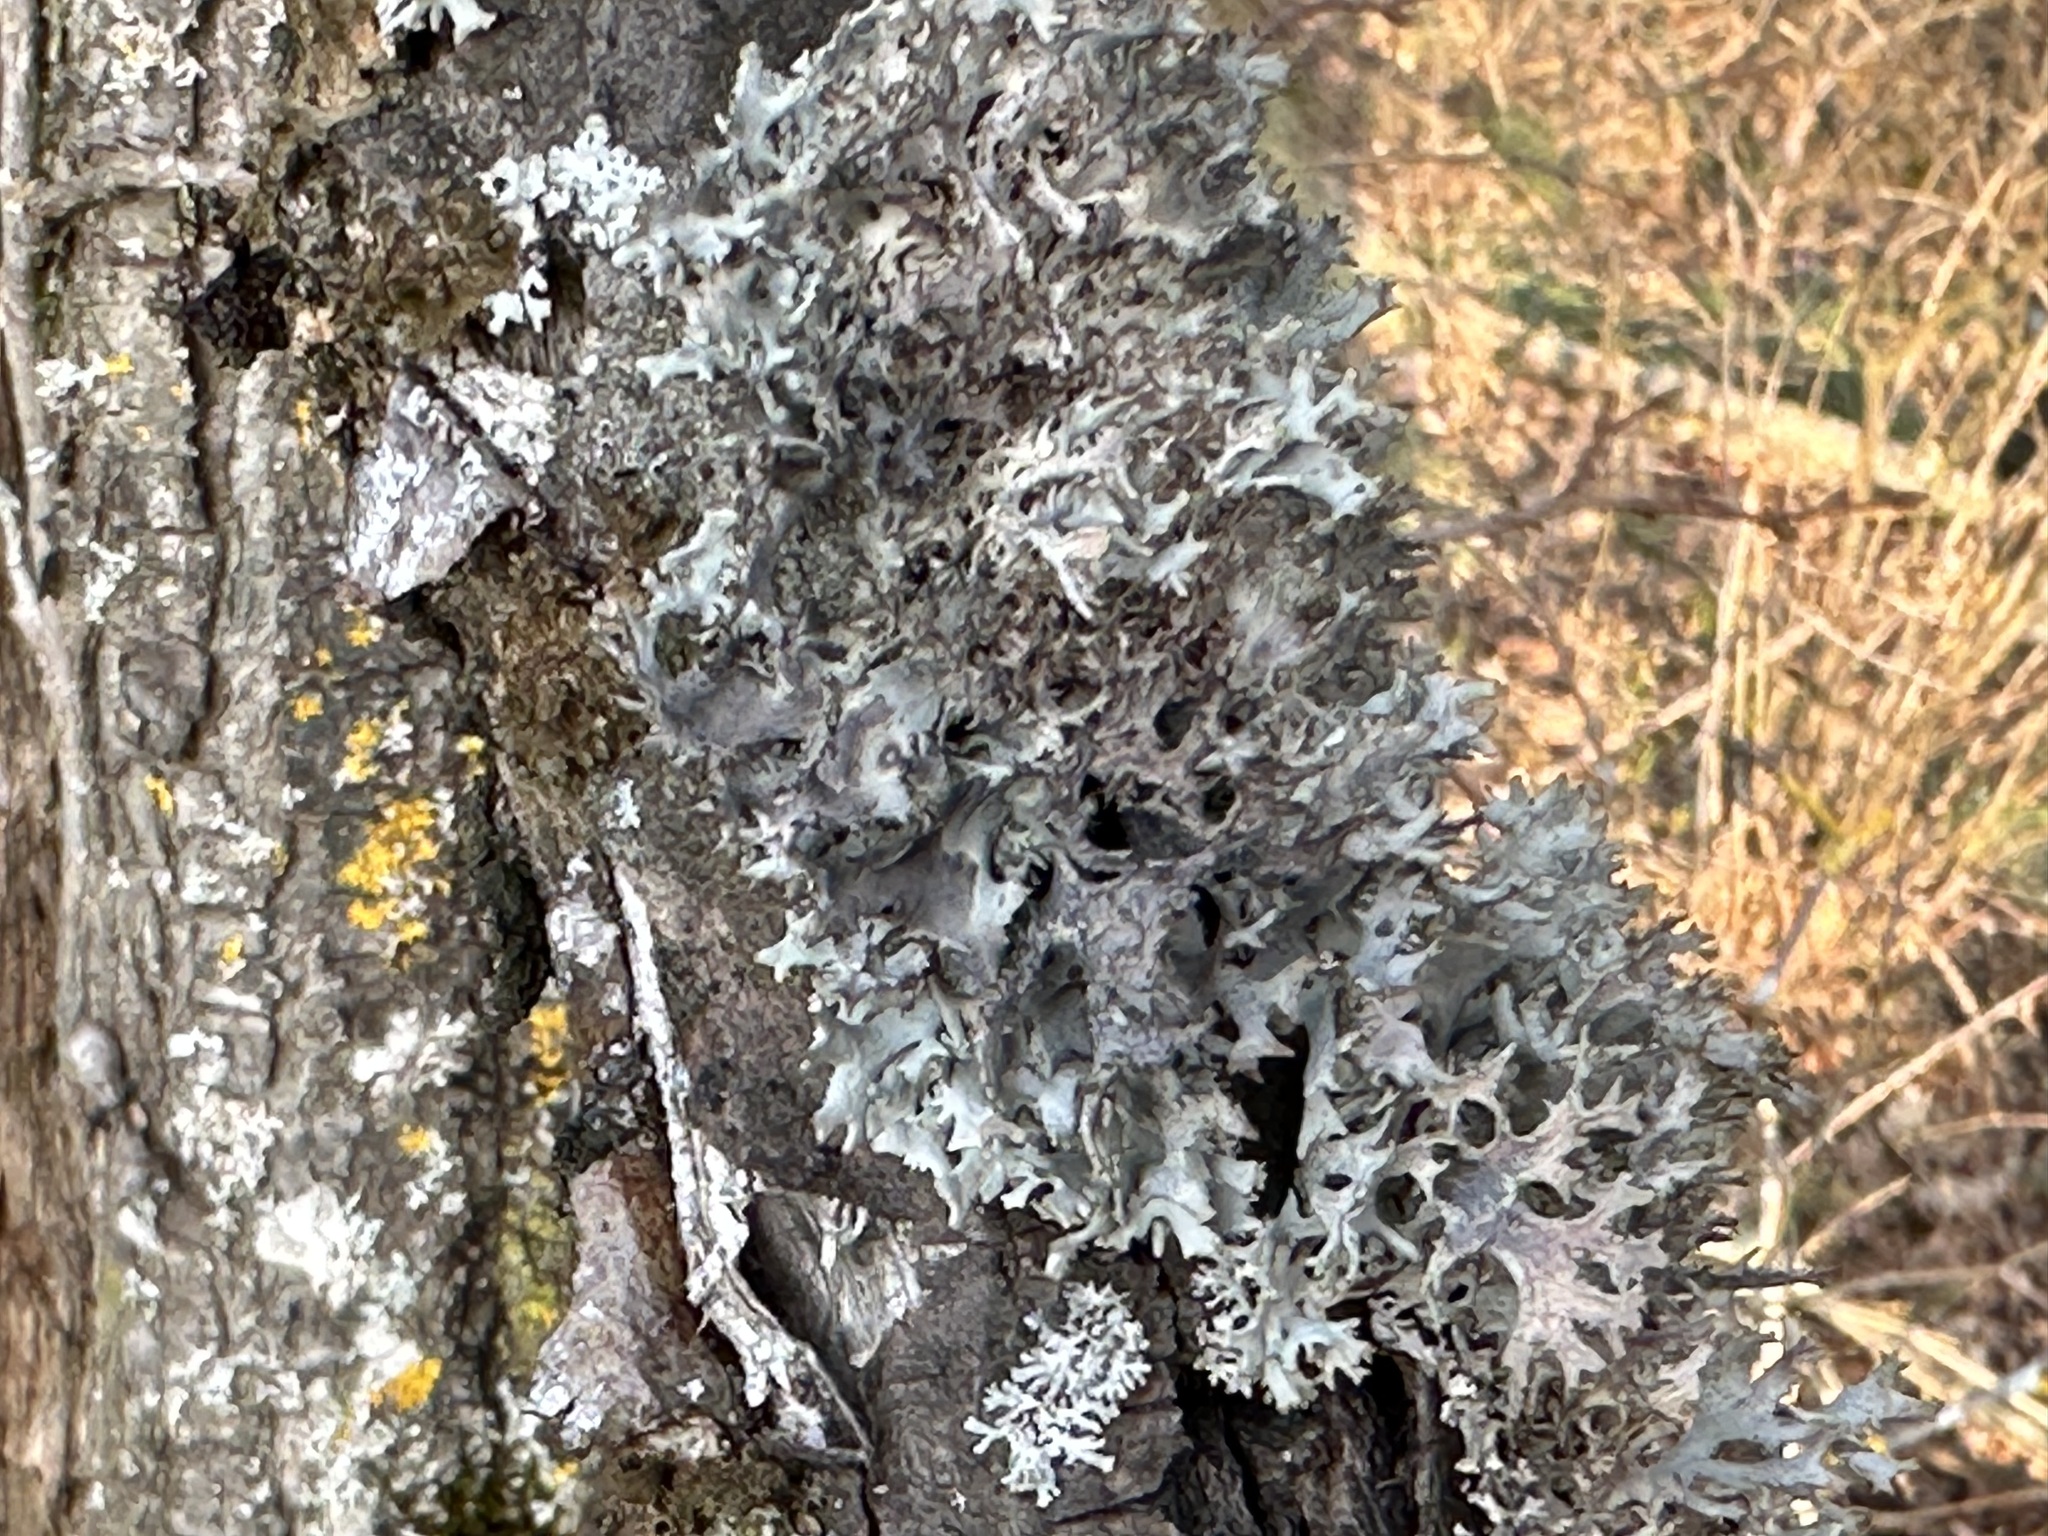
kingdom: Fungi
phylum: Ascomycota
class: Lecanoromycetes
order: Lecanorales
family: Parmeliaceae
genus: Pseudevernia
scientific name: Pseudevernia furfuracea
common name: Tree moss
